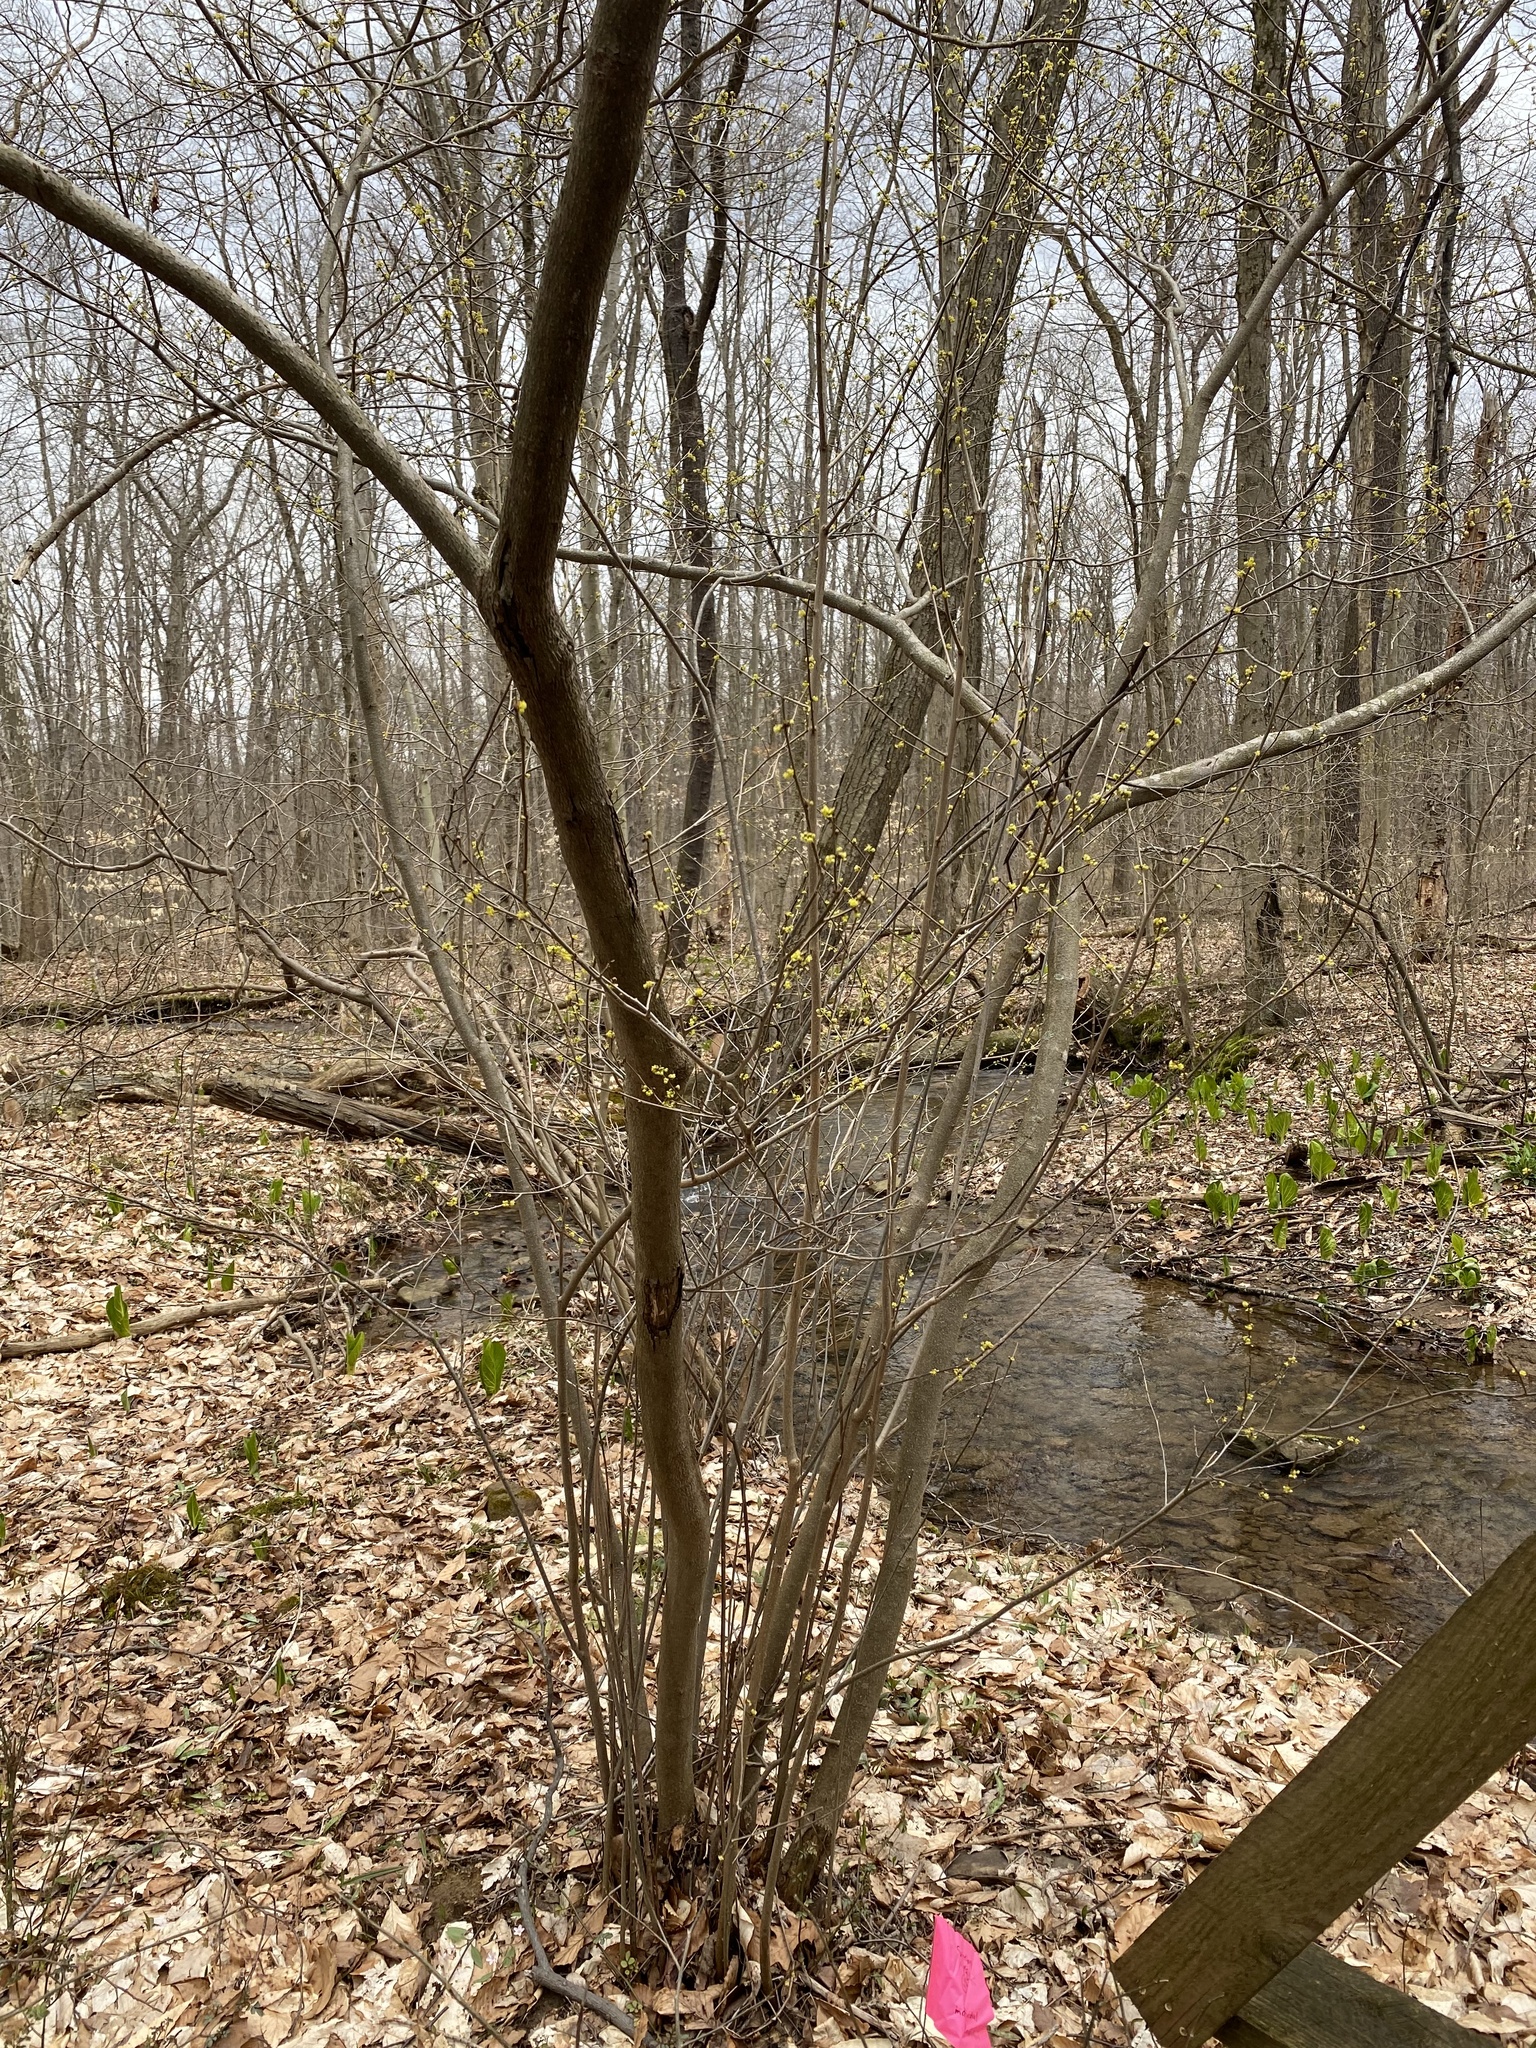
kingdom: Plantae
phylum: Tracheophyta
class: Magnoliopsida
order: Laurales
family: Lauraceae
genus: Lindera
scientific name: Lindera benzoin
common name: Spicebush
